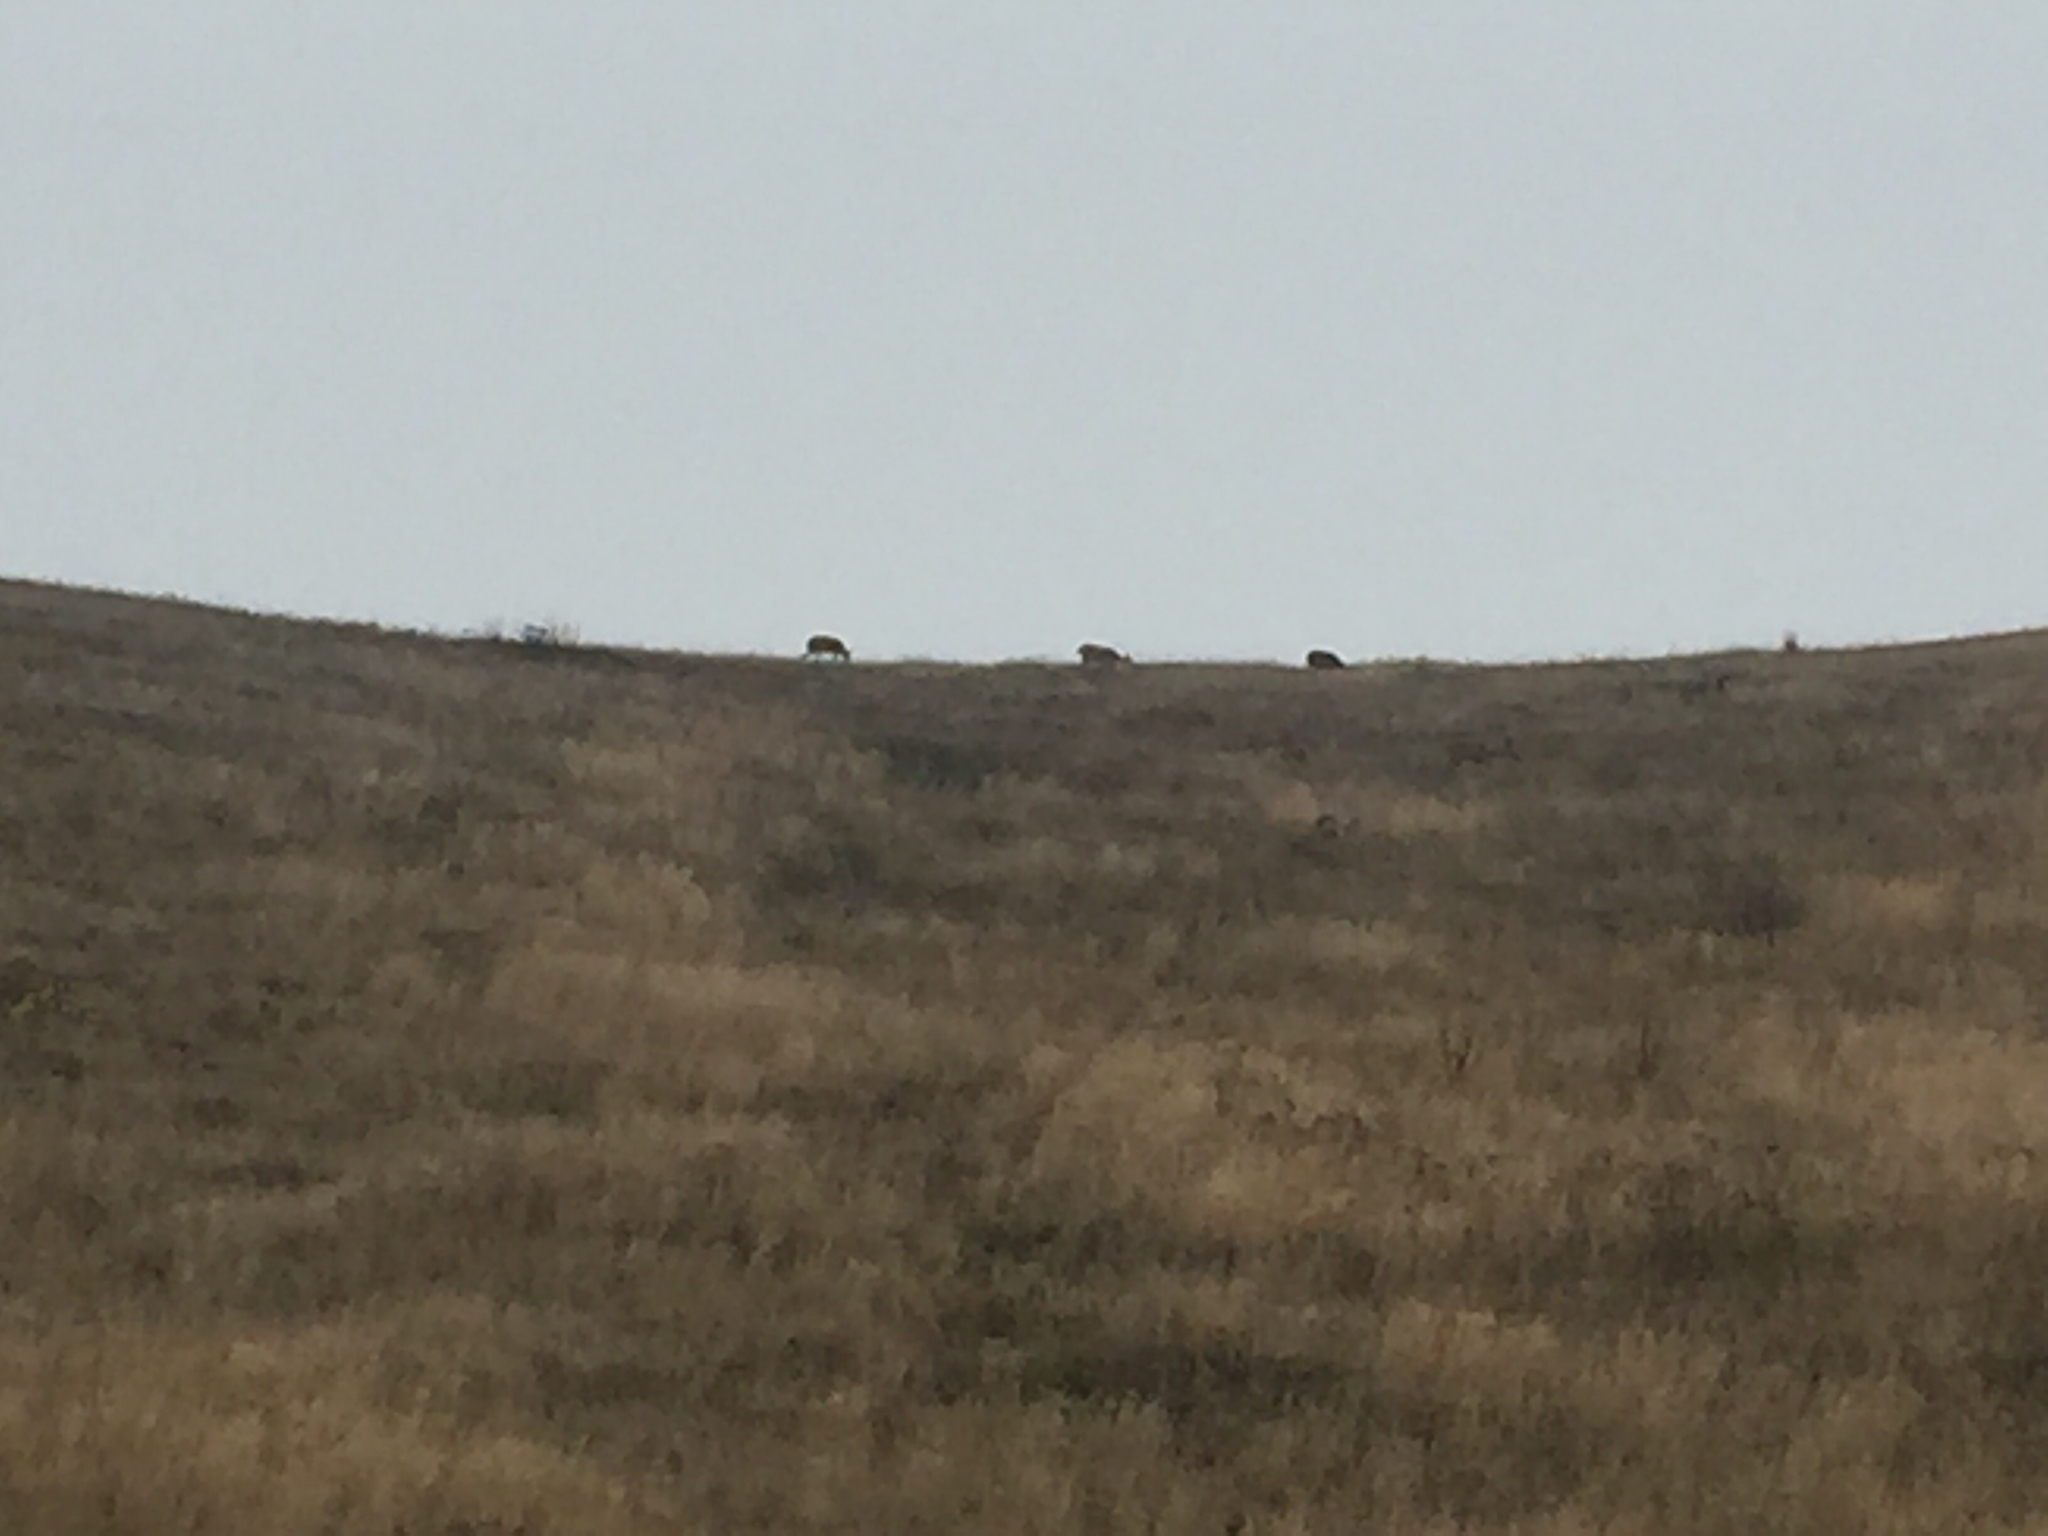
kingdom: Animalia
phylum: Chordata
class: Mammalia
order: Artiodactyla
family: Cervidae
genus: Odocoileus
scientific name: Odocoileus hemionus
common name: Mule deer
